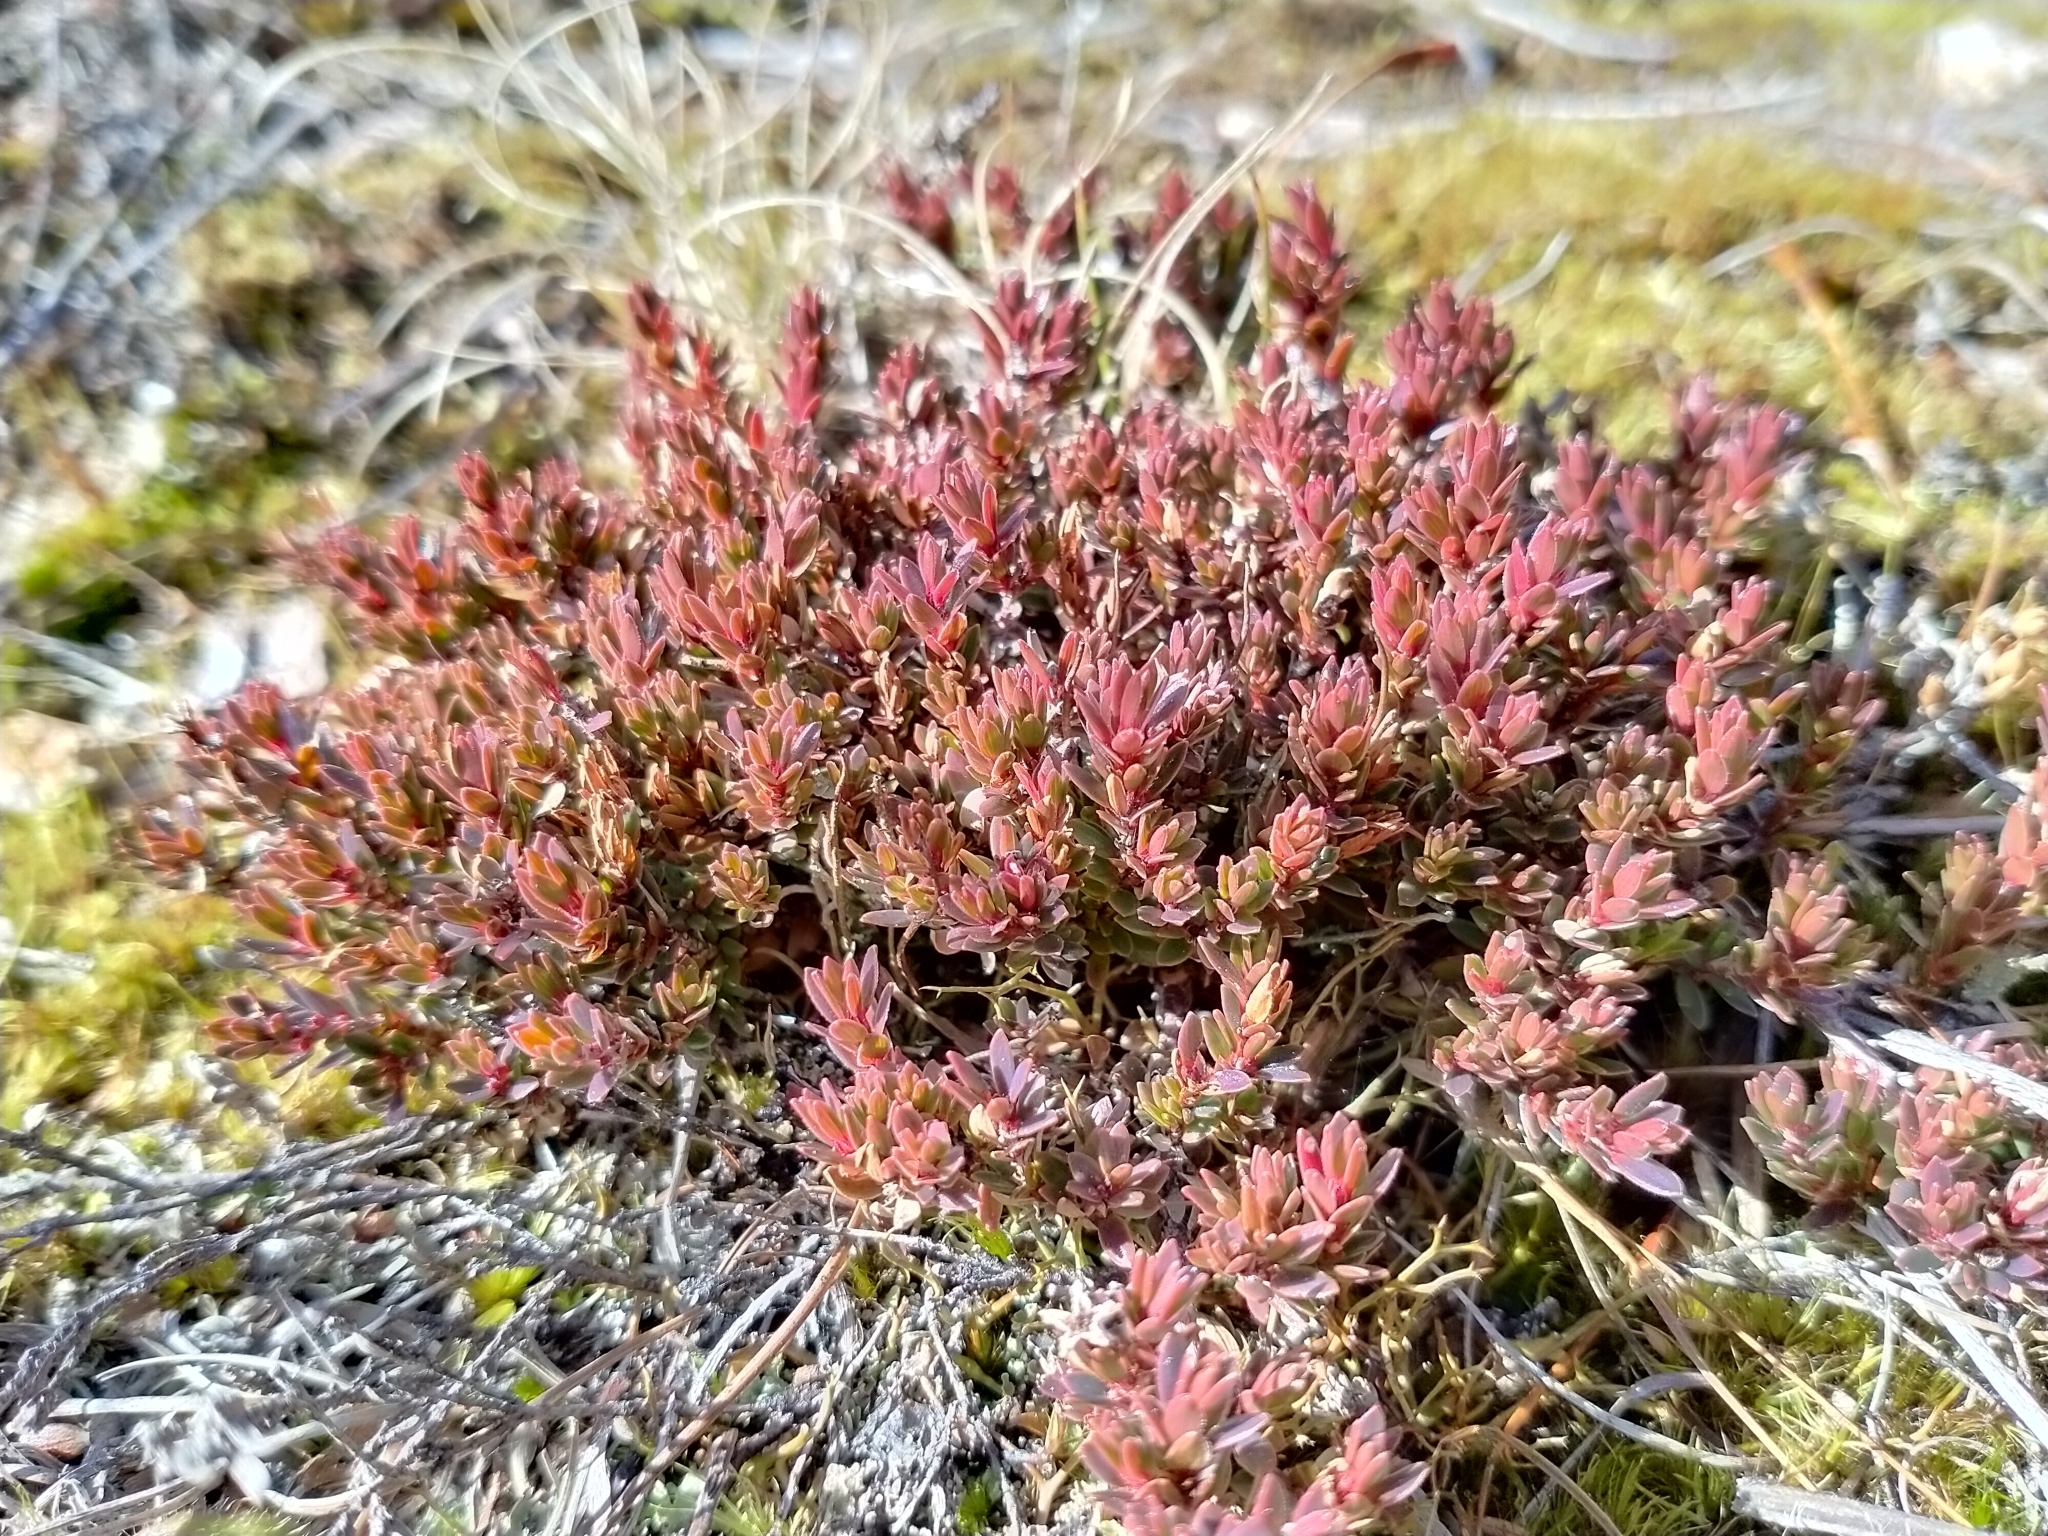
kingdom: Plantae
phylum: Tracheophyta
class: Magnoliopsida
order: Ericales
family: Ericaceae
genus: Pentachondra
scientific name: Pentachondra pumila
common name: Carpet-heath
